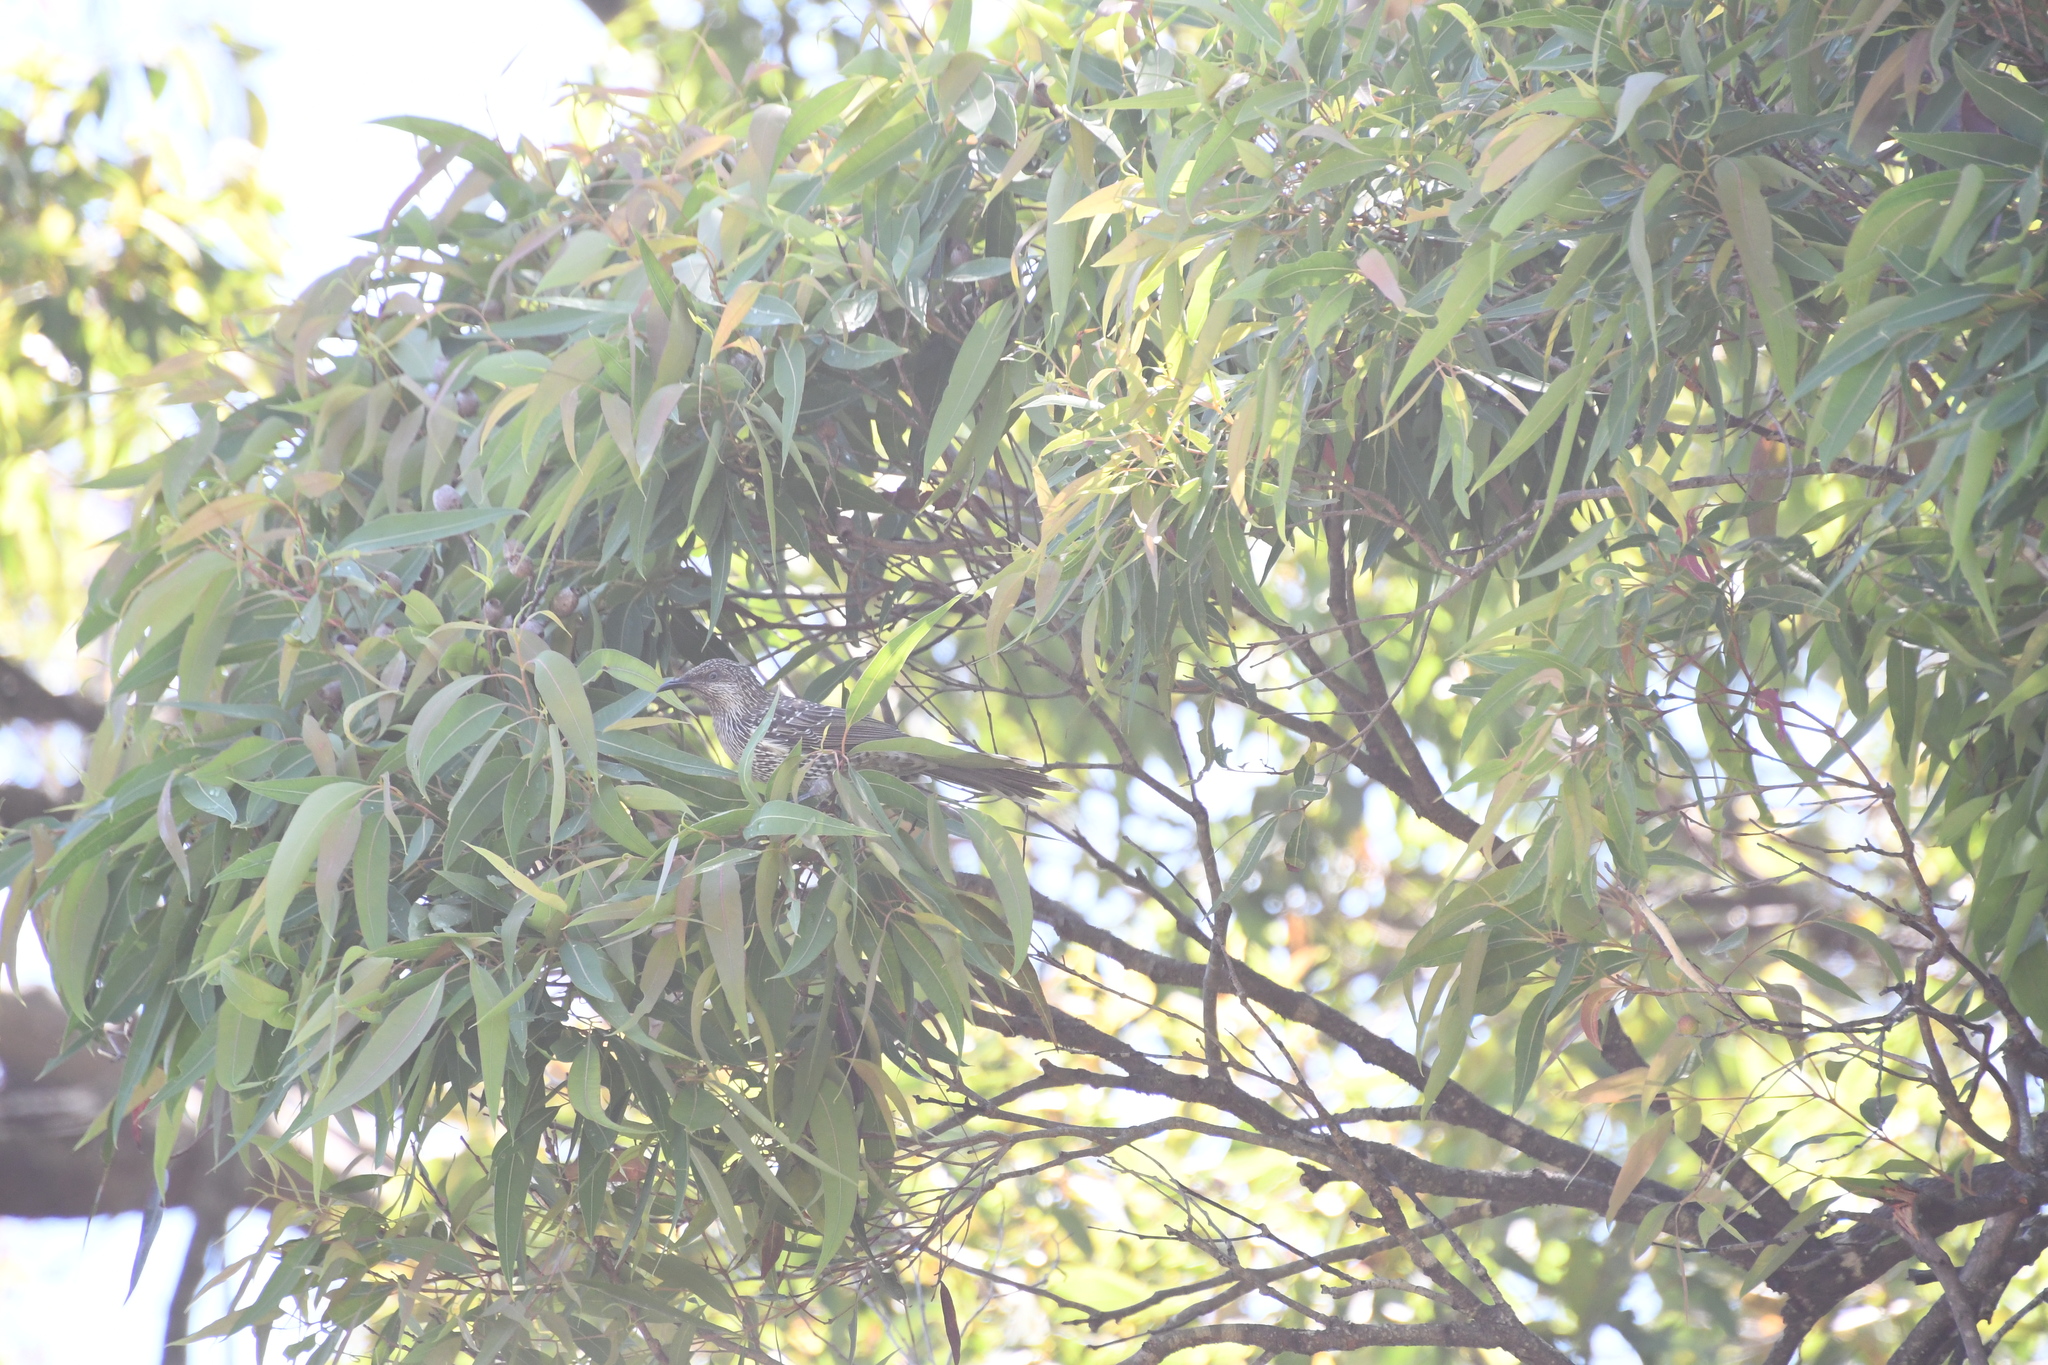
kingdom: Animalia
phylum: Chordata
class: Aves
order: Passeriformes
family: Meliphagidae
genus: Anthochaera
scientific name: Anthochaera chrysoptera
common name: Little wattlebird
